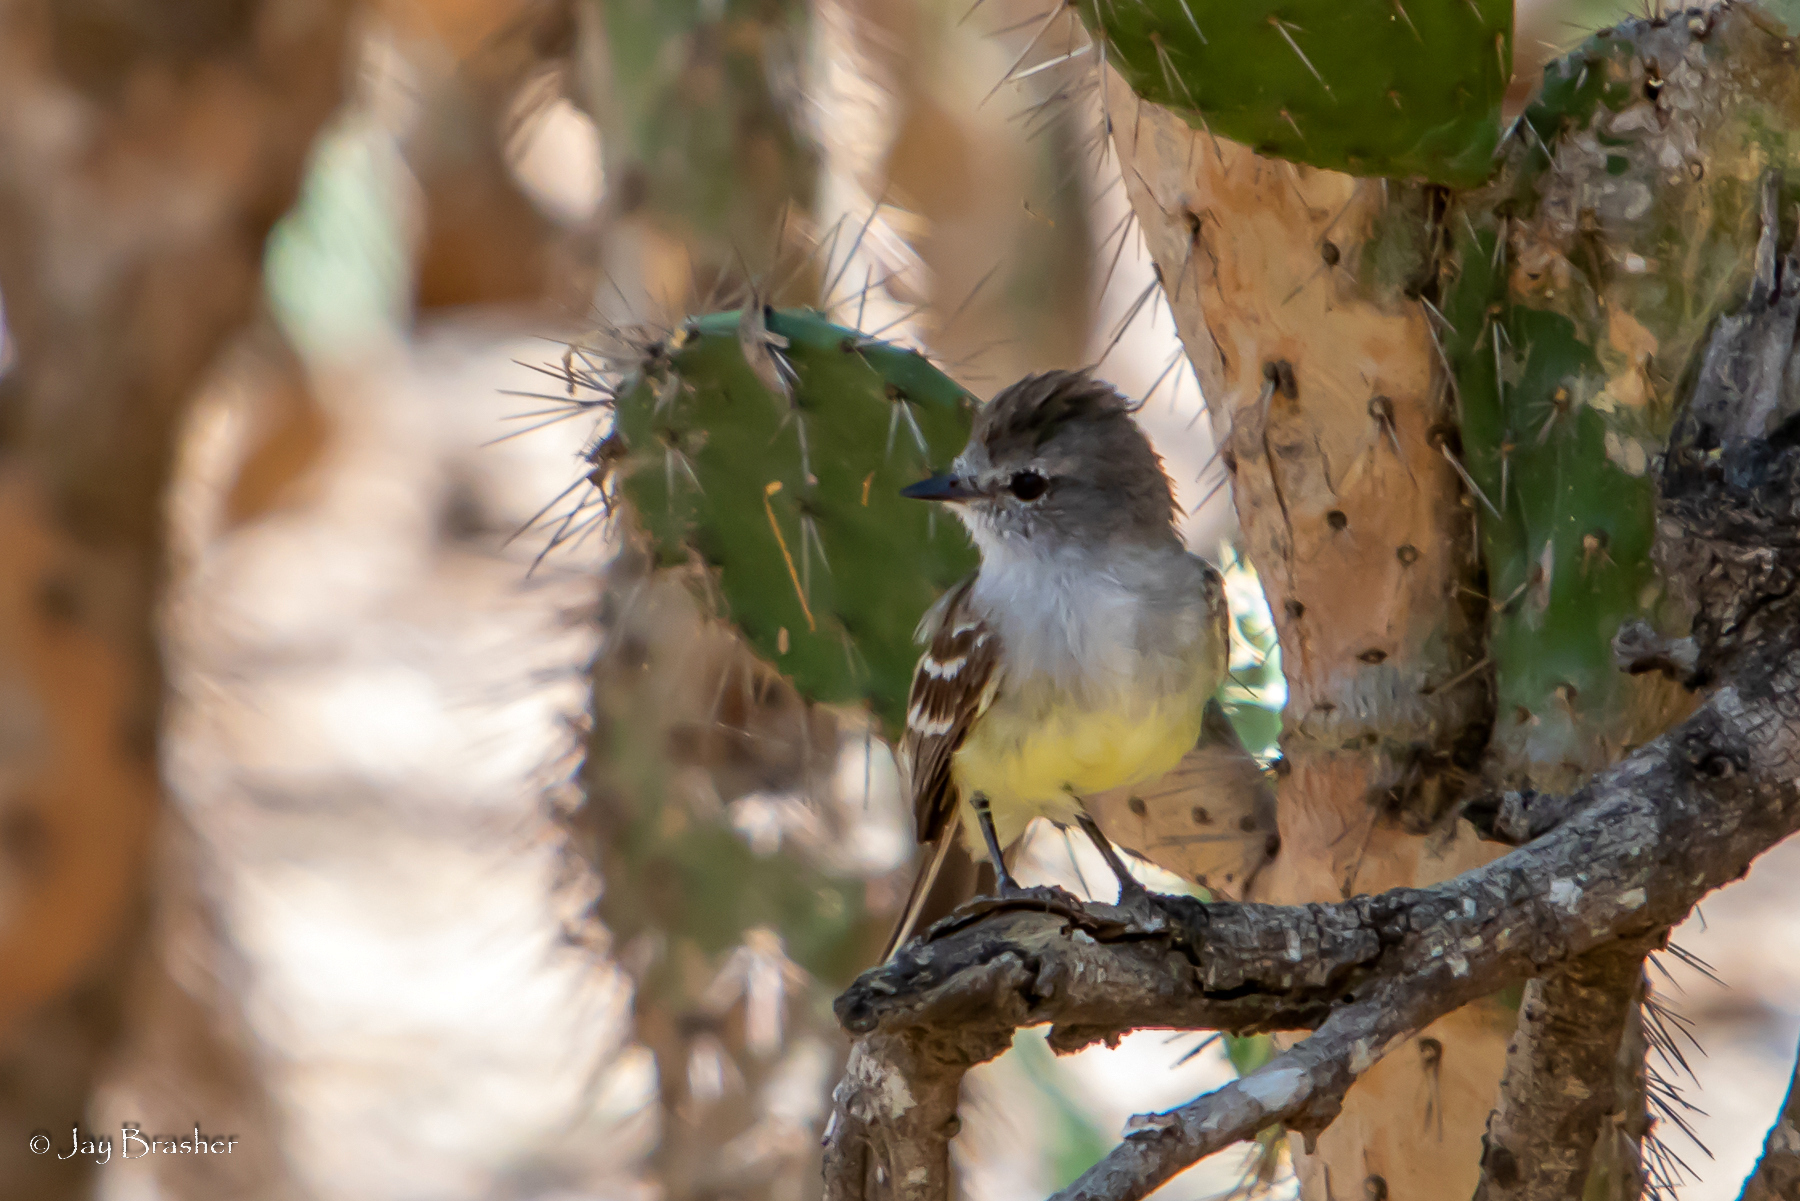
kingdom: Animalia
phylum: Chordata
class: Aves
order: Passeriformes
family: Tyrannidae
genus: Sublegatus
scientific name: Sublegatus arenarum
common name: Northern scrub-flycatcher
